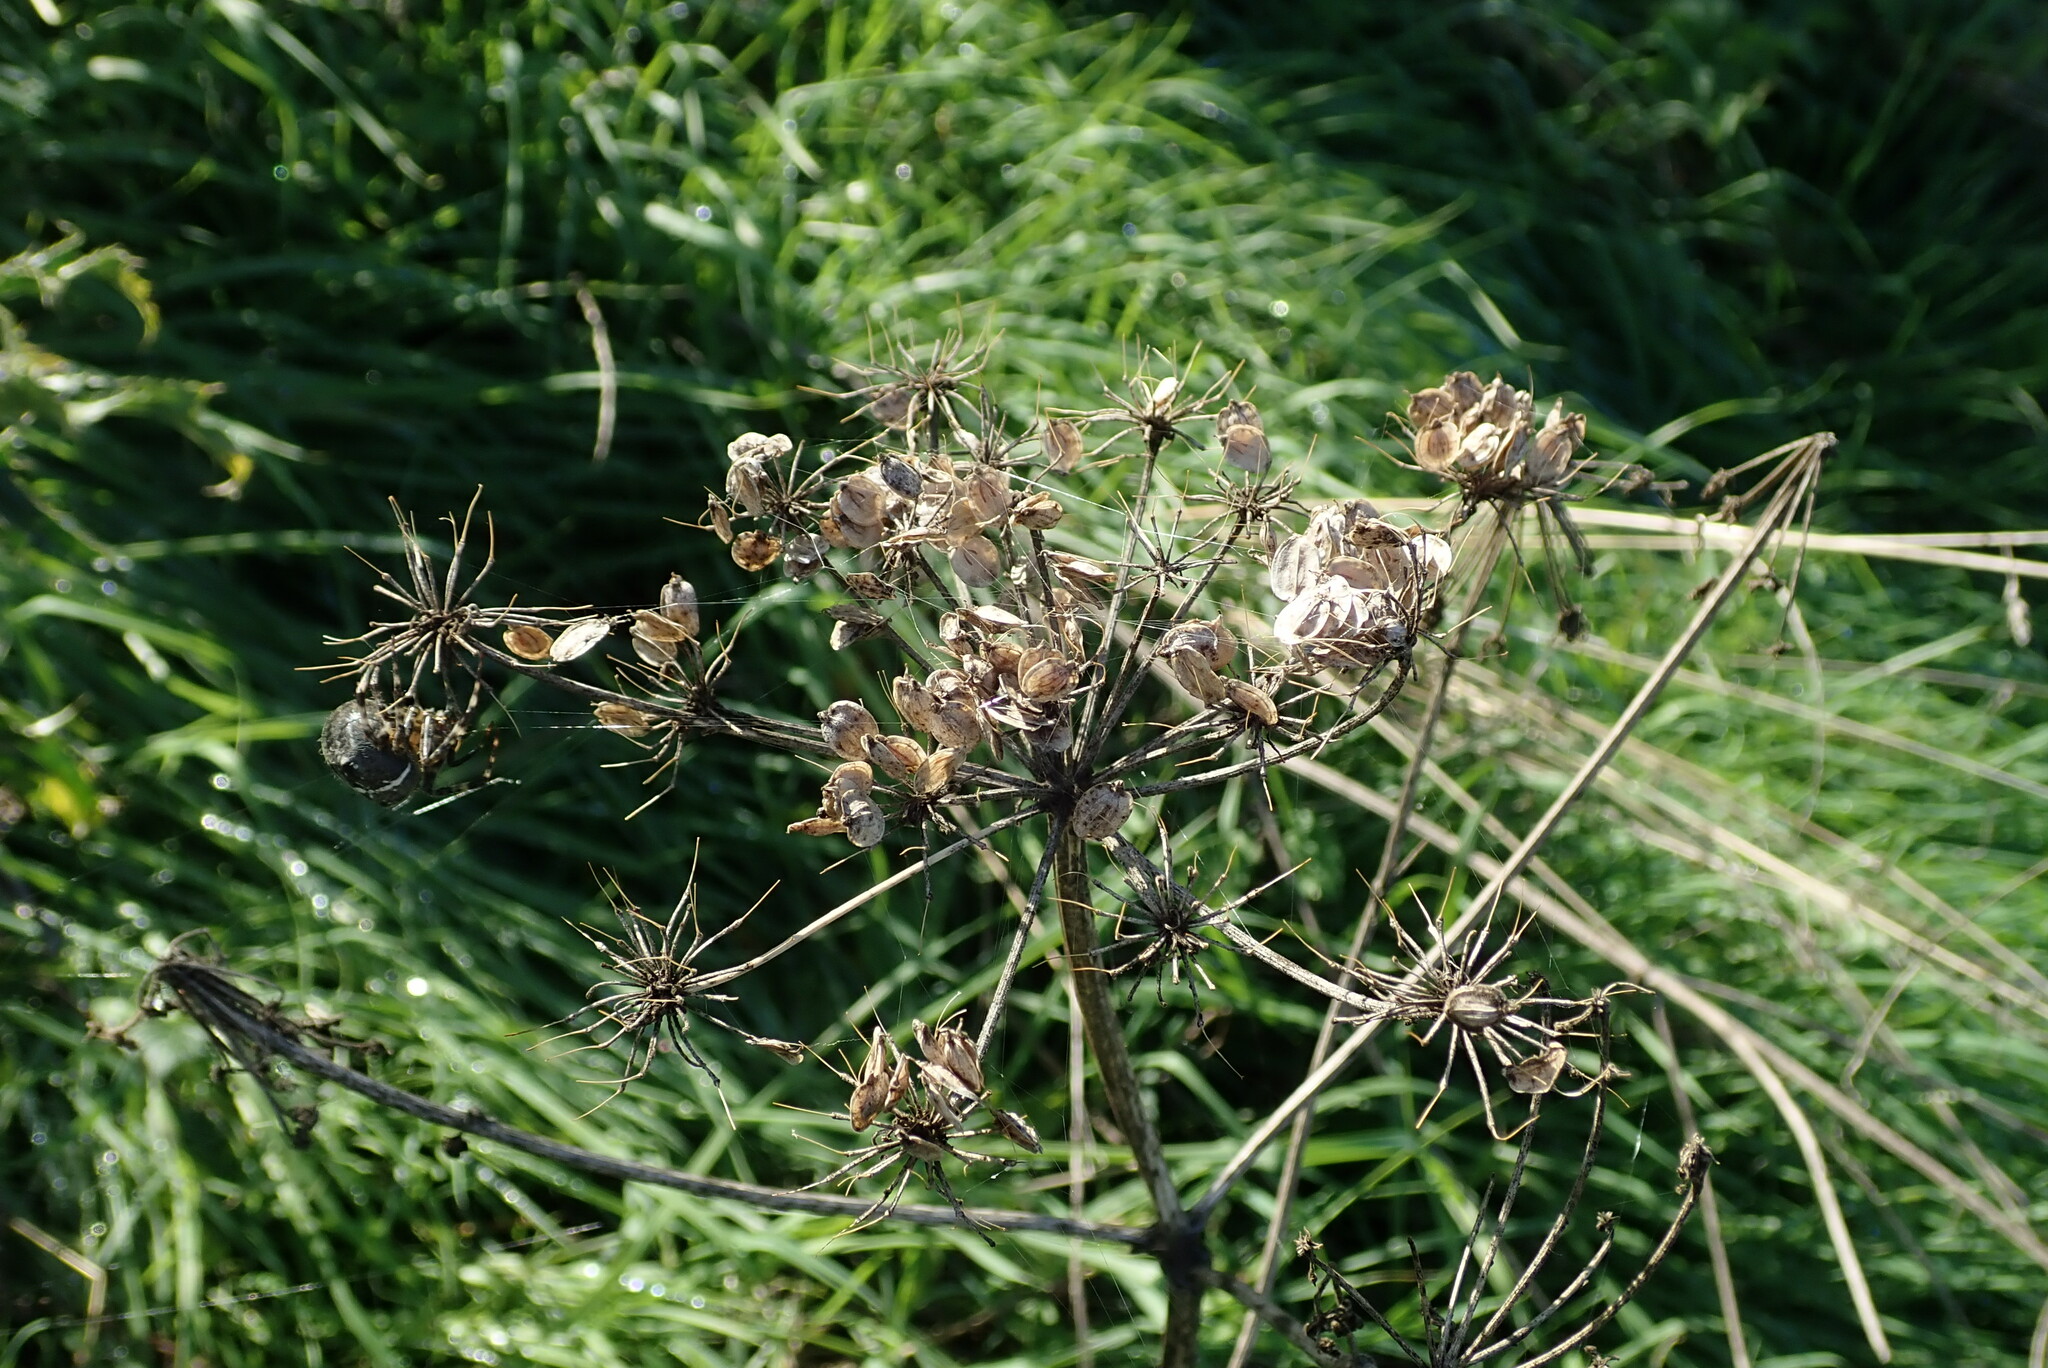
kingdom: Plantae
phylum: Tracheophyta
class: Magnoliopsida
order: Apiales
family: Apiaceae
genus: Heracleum
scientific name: Heracleum sphondylium
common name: Hogweed
